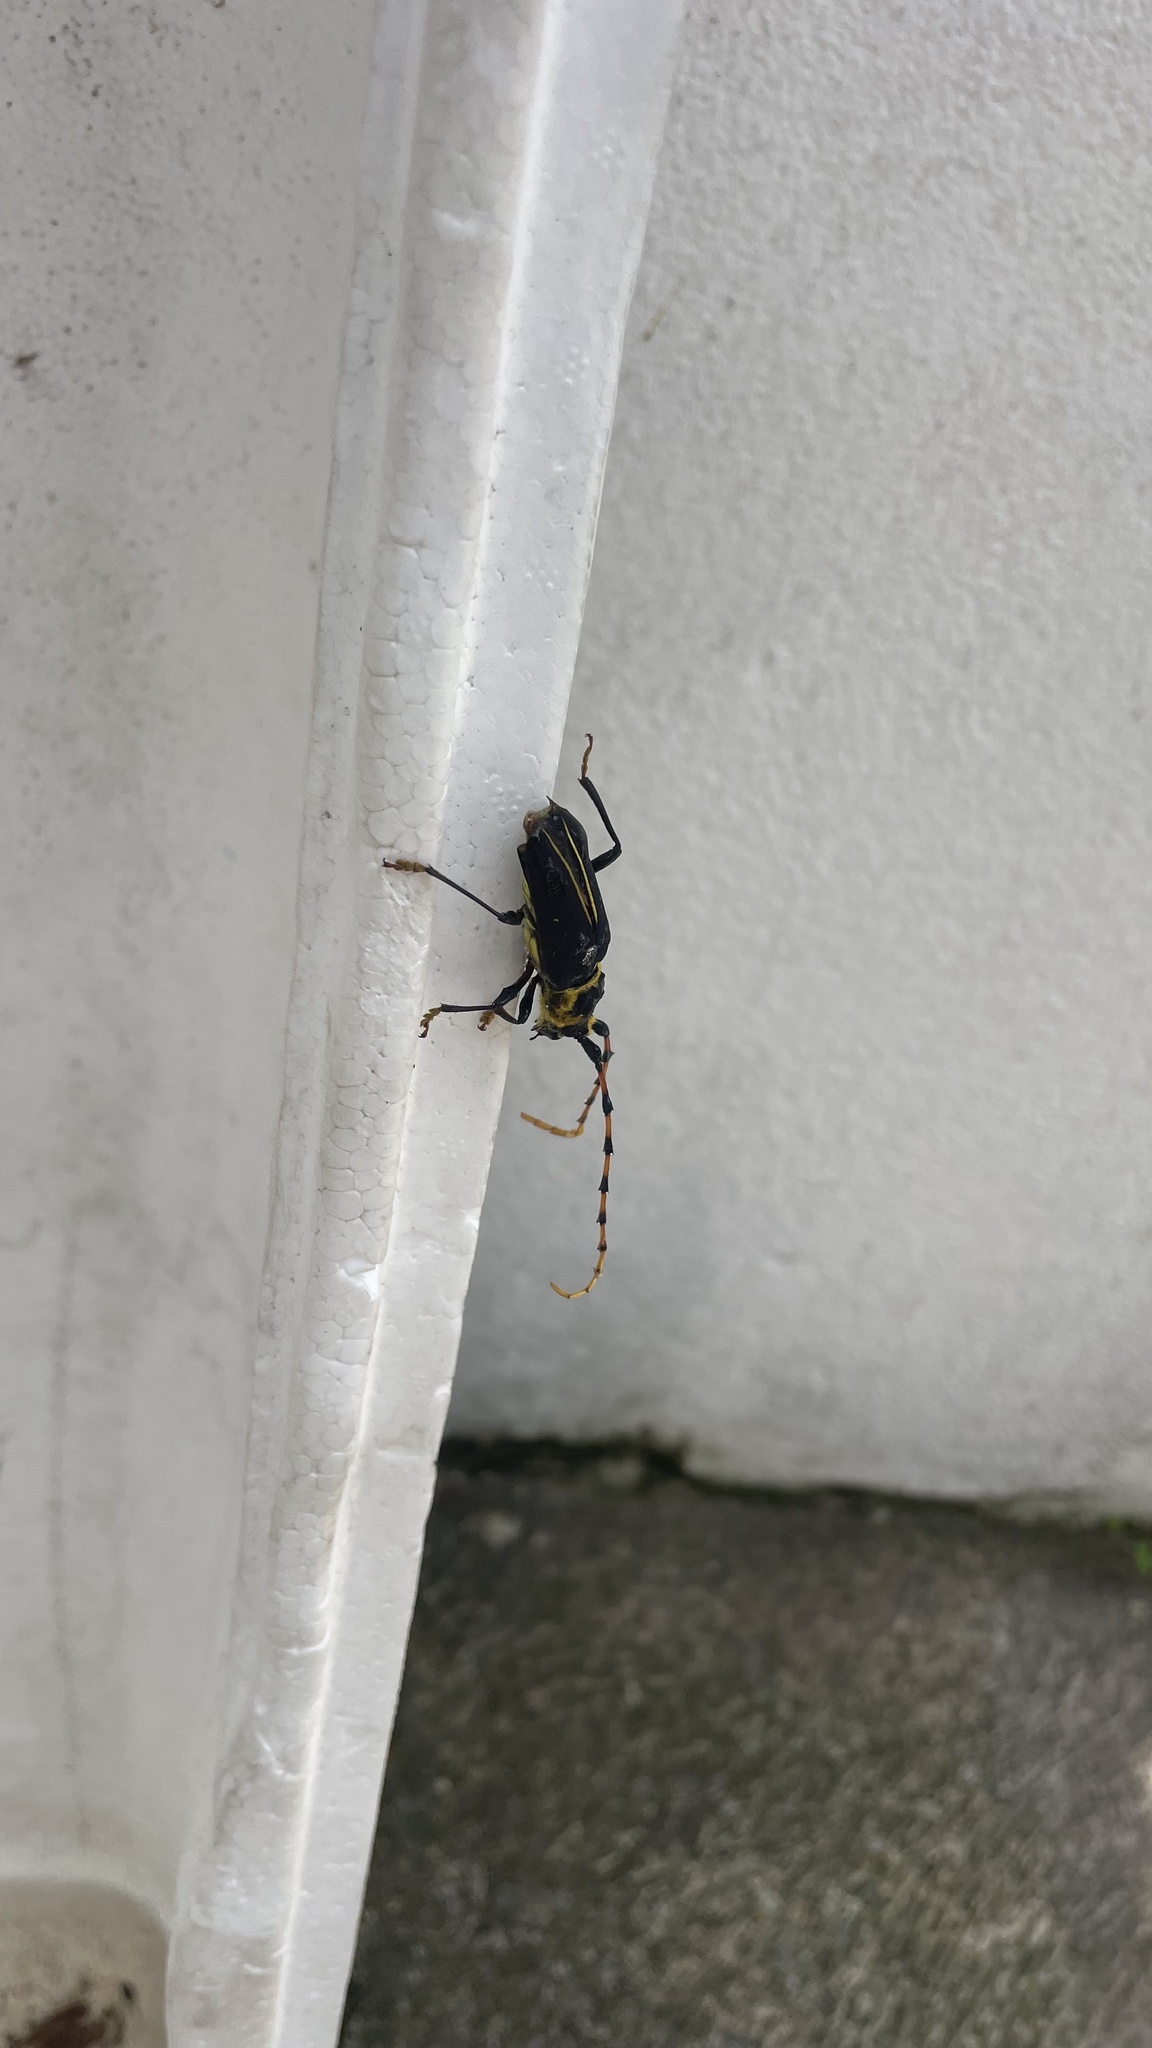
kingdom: Animalia
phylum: Arthropoda
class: Insecta
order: Coleoptera
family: Cerambycidae
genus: Dorcacerus
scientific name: Dorcacerus barbatus
